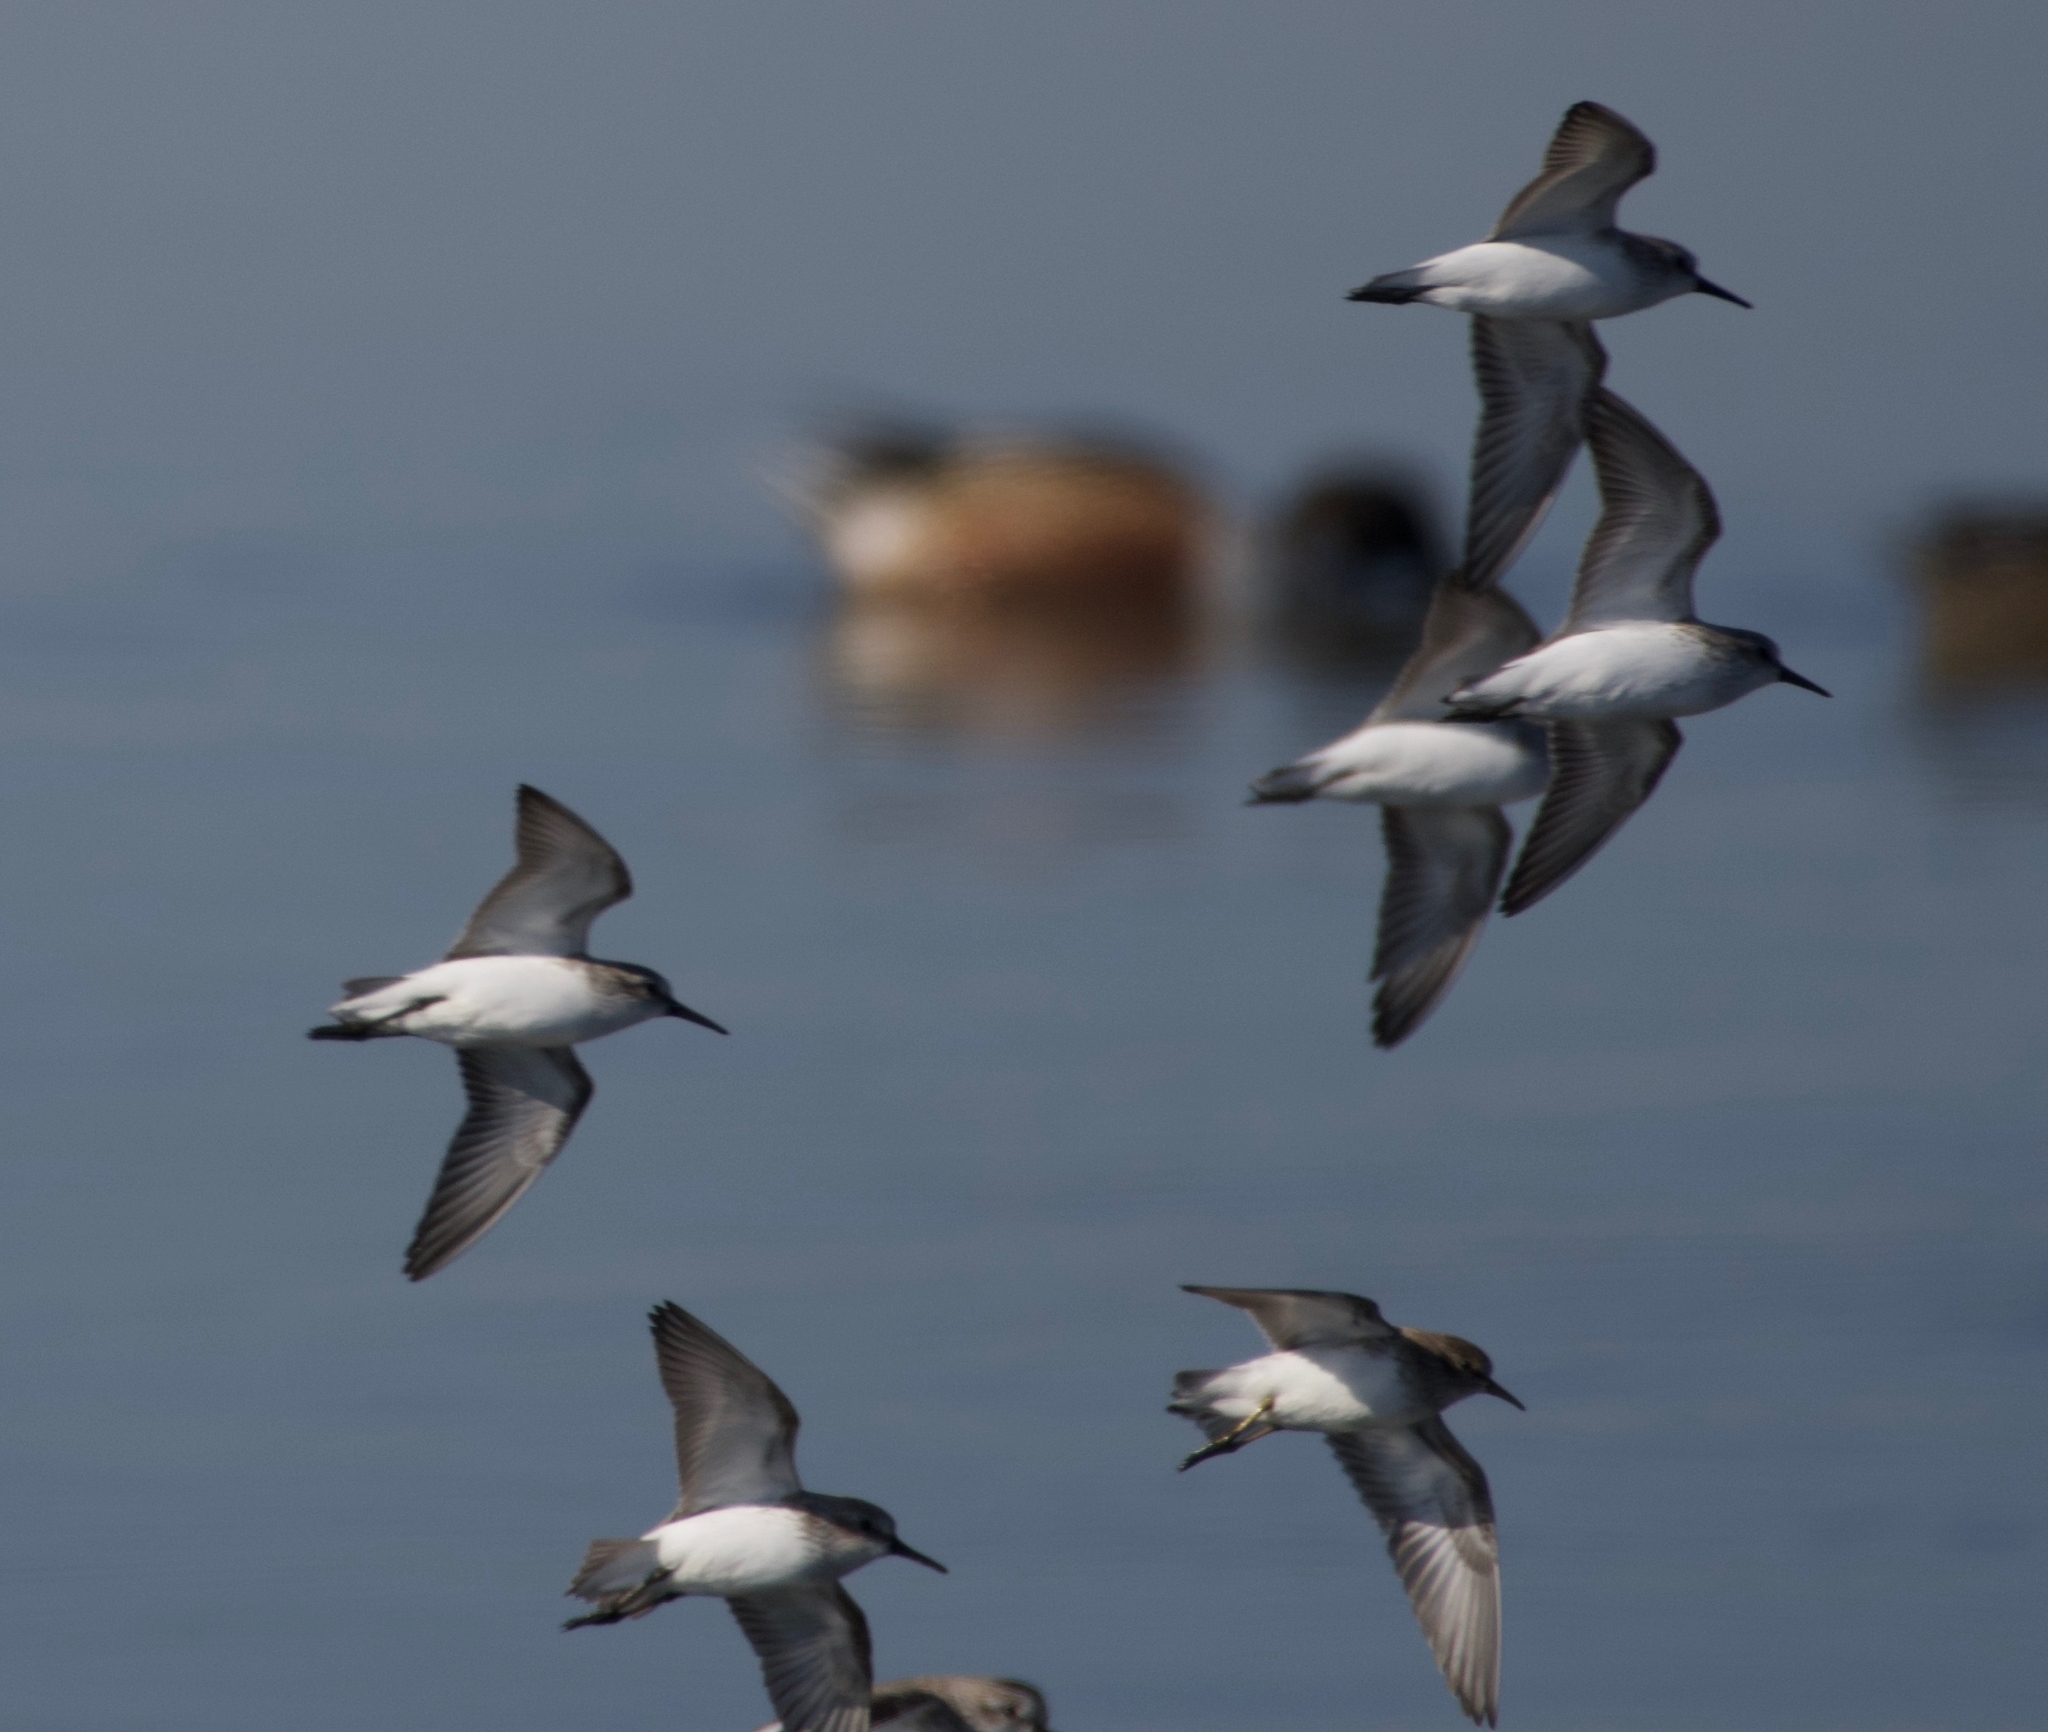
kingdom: Animalia
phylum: Chordata
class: Aves
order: Charadriiformes
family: Scolopacidae
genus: Calidris
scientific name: Calidris mauri
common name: Western sandpiper
